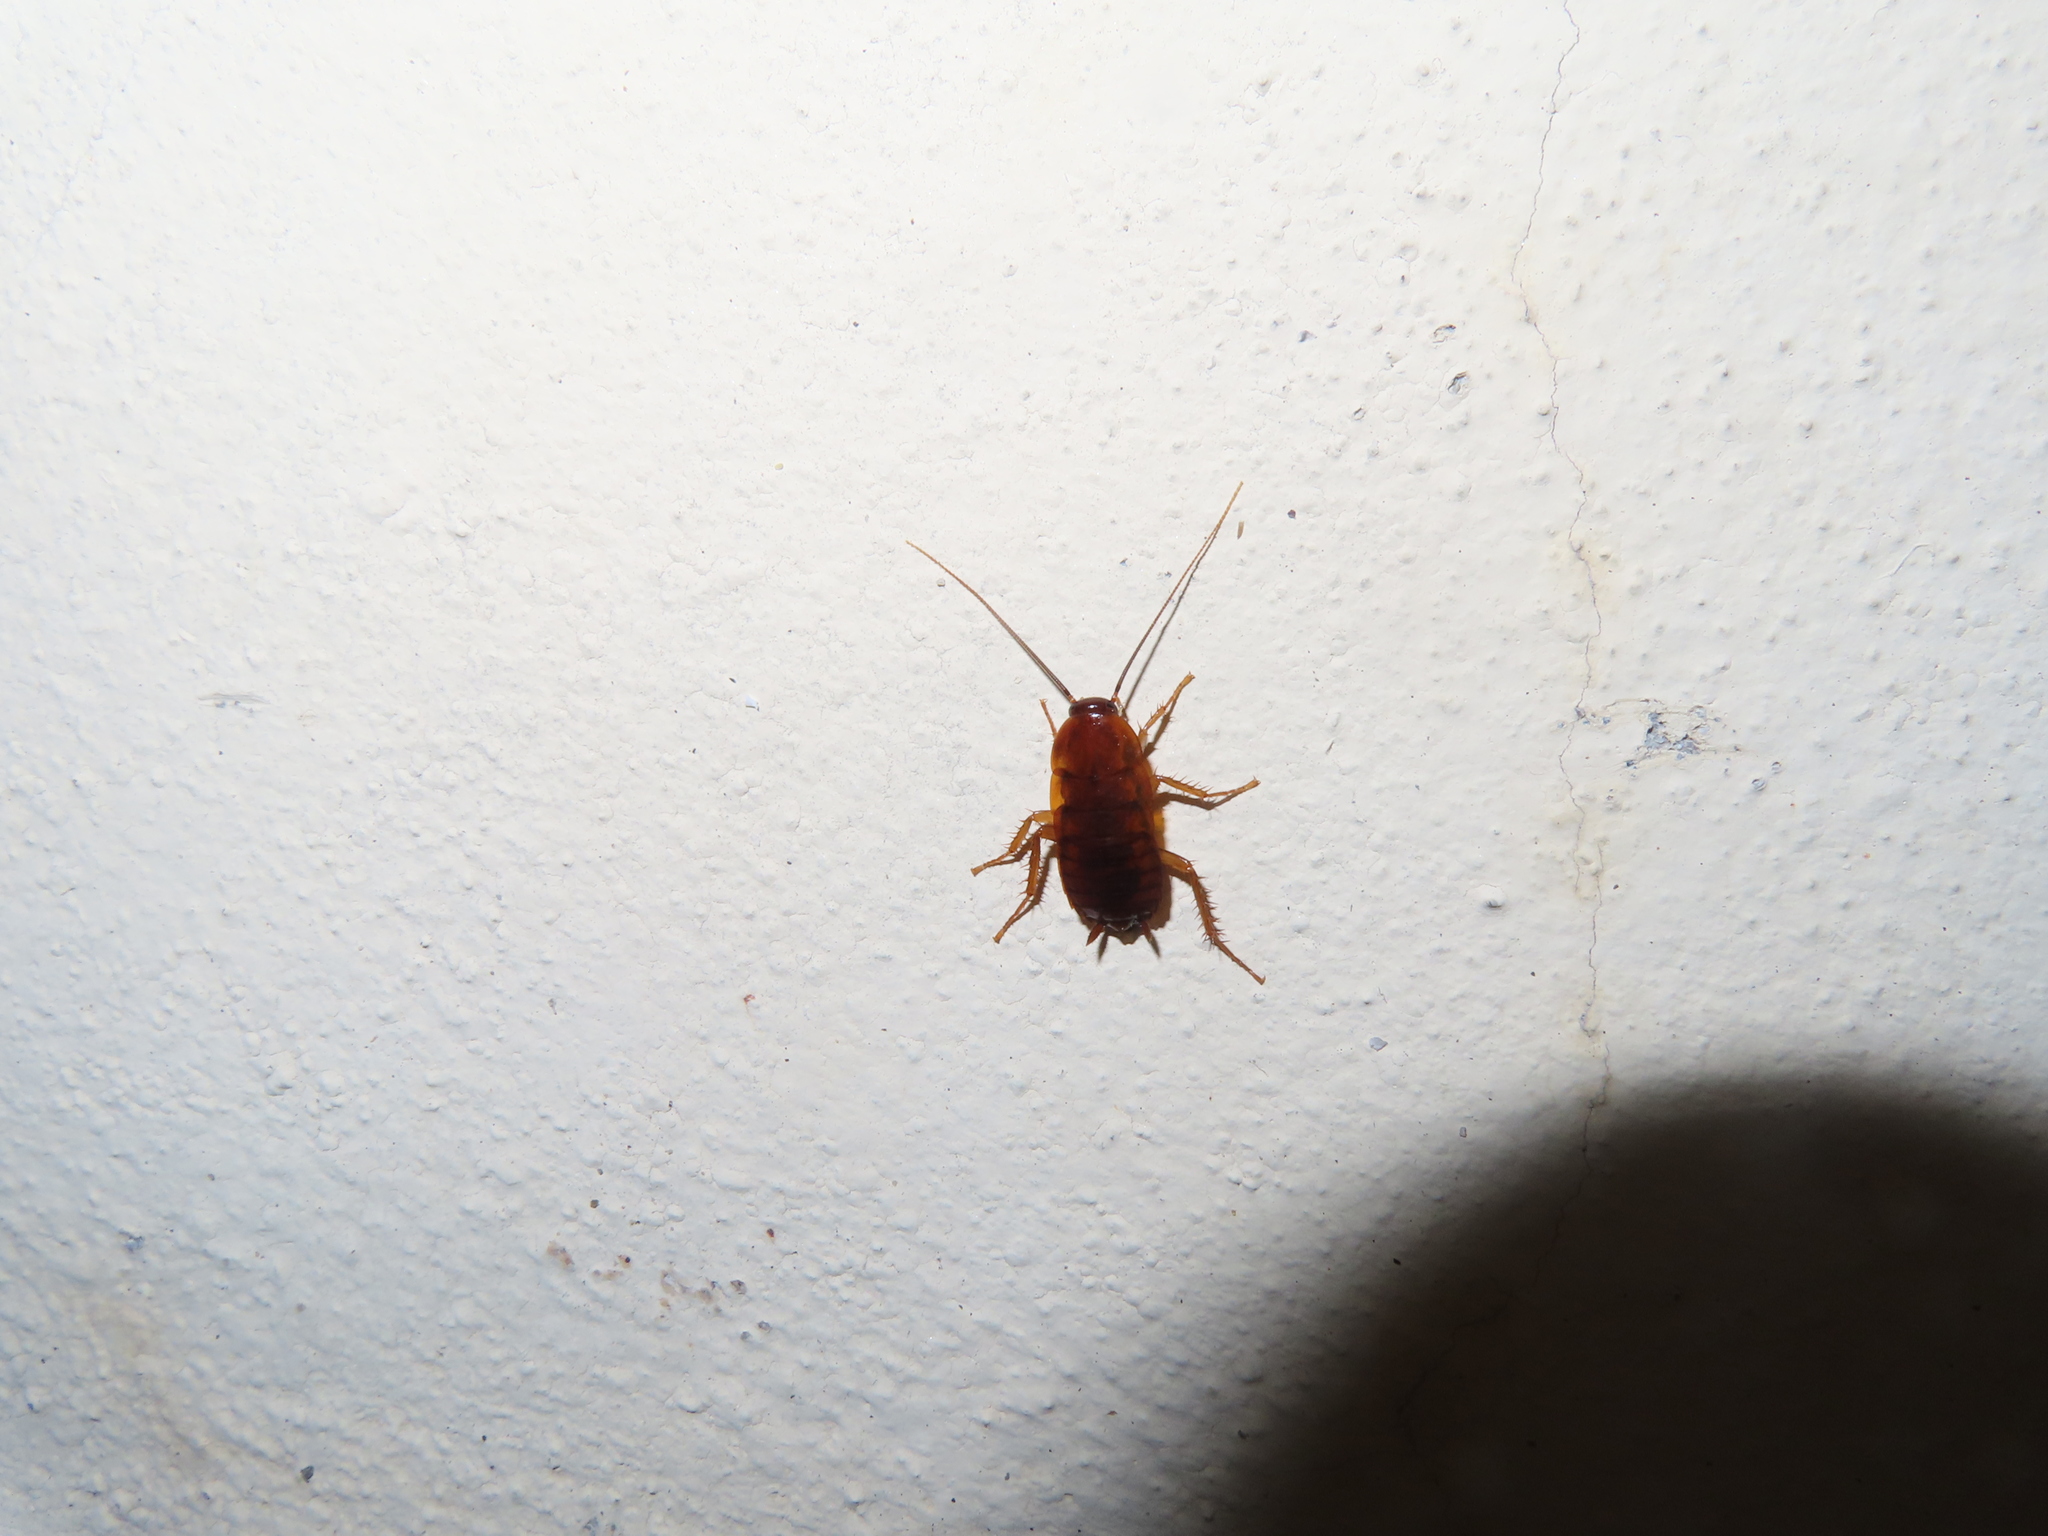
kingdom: Animalia
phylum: Arthropoda
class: Insecta
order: Blattodea
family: Blattidae
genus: Periplaneta
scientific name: Periplaneta lateralis
